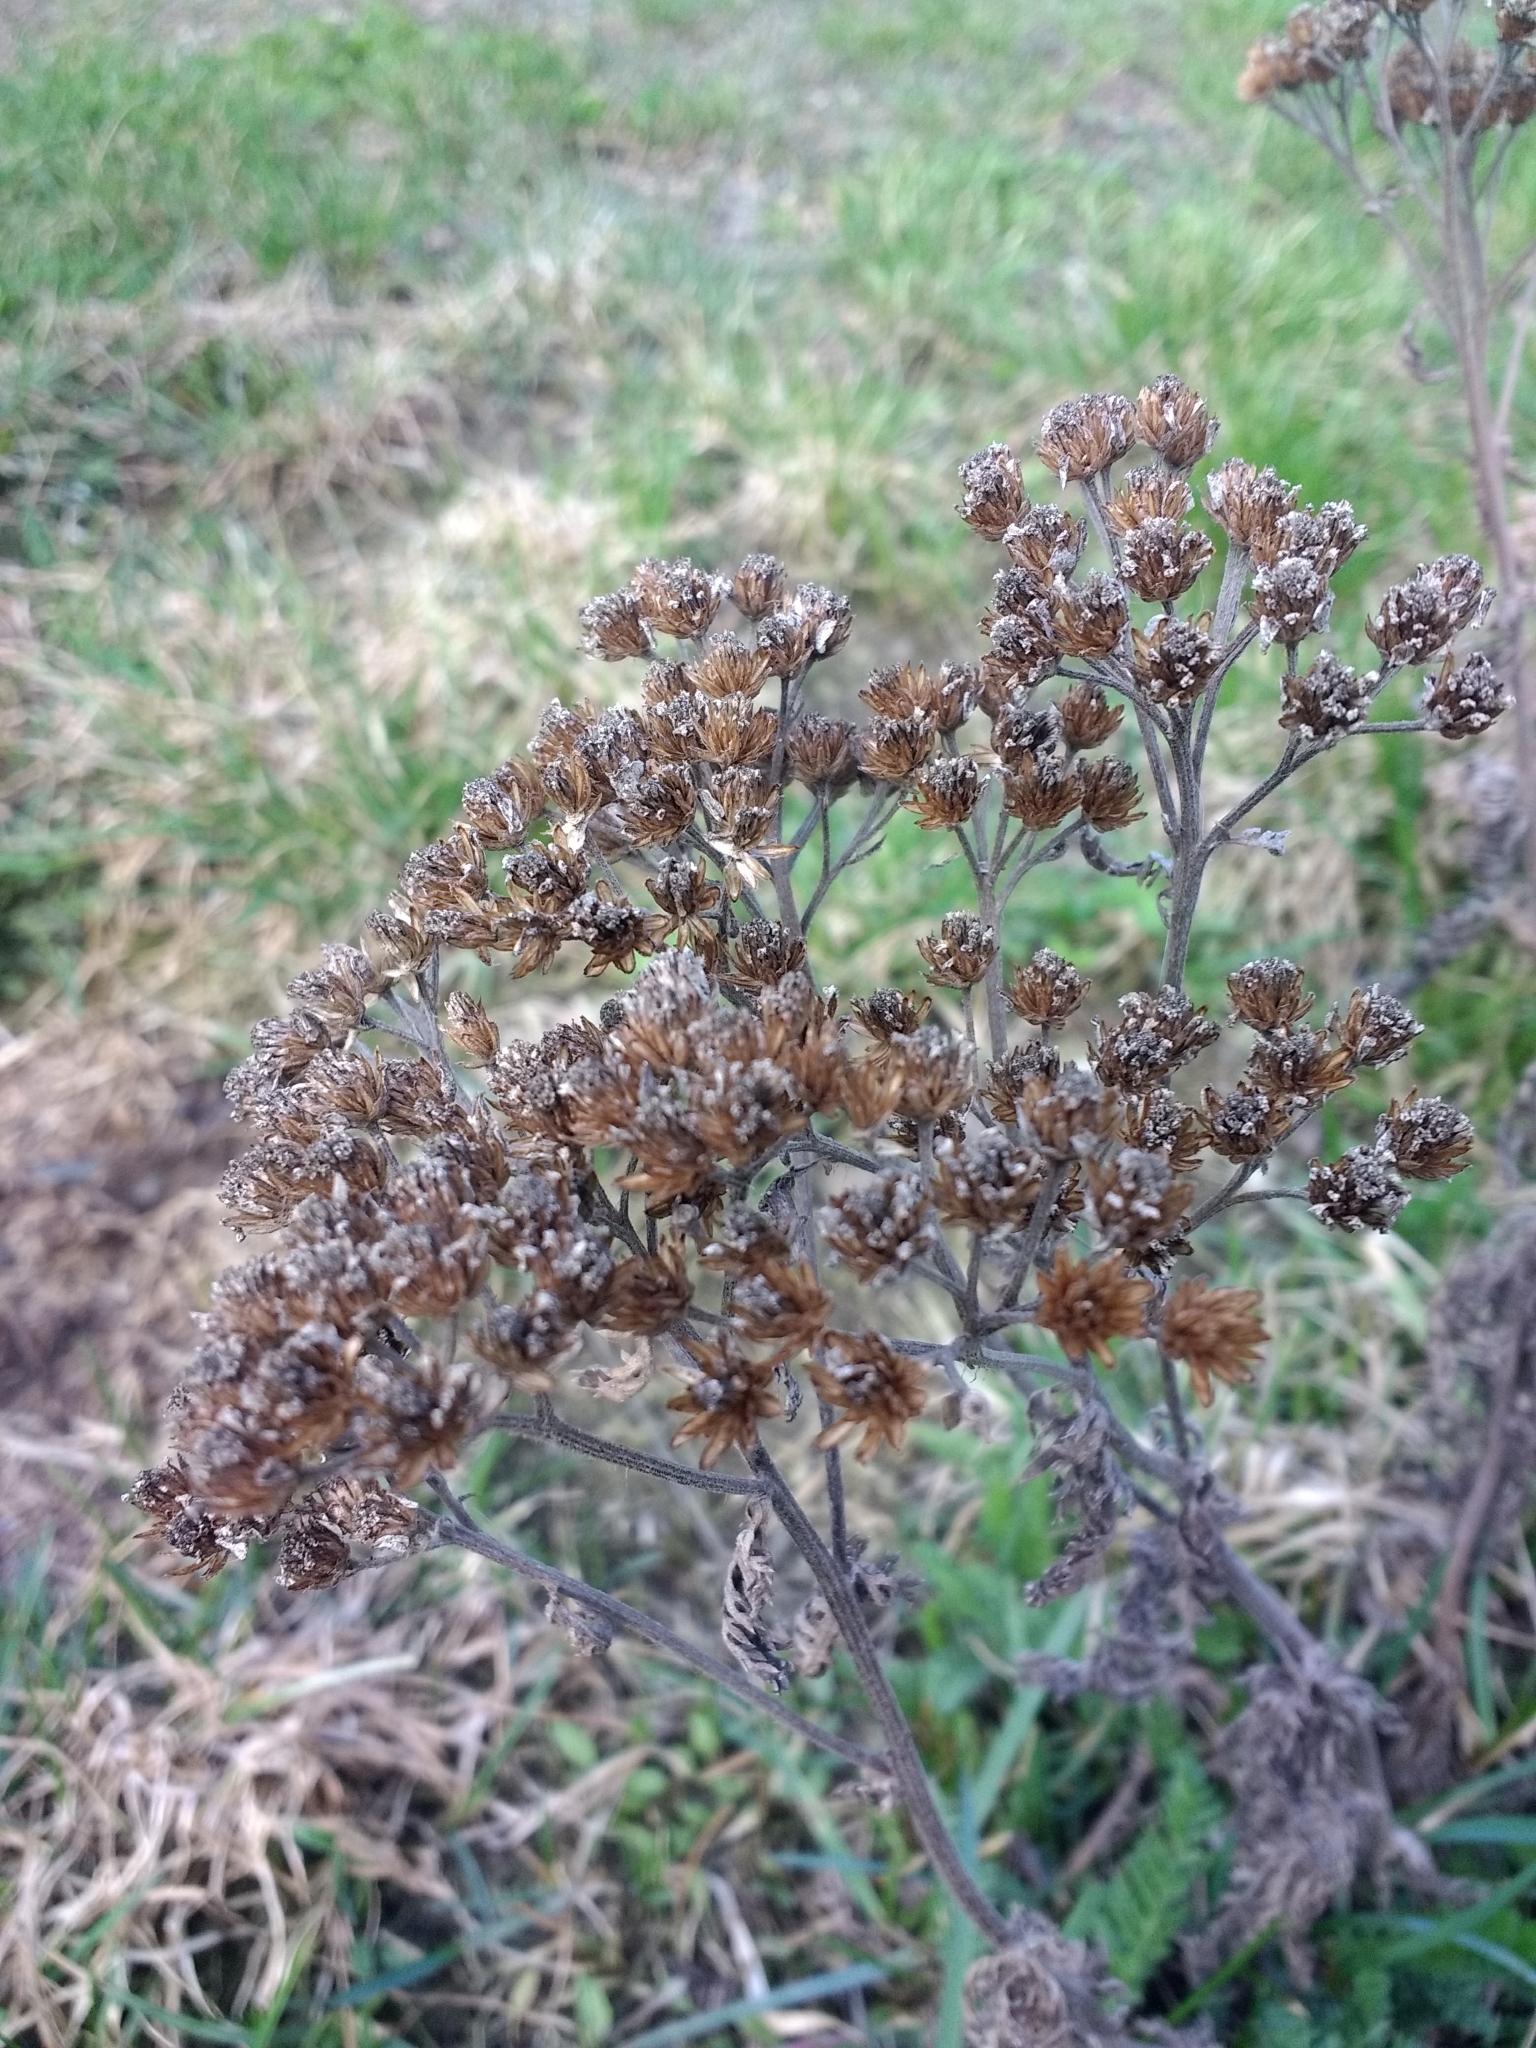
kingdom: Plantae
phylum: Tracheophyta
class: Magnoliopsida
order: Asterales
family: Asteraceae
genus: Achillea
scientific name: Achillea millefolium
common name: Yarrow
